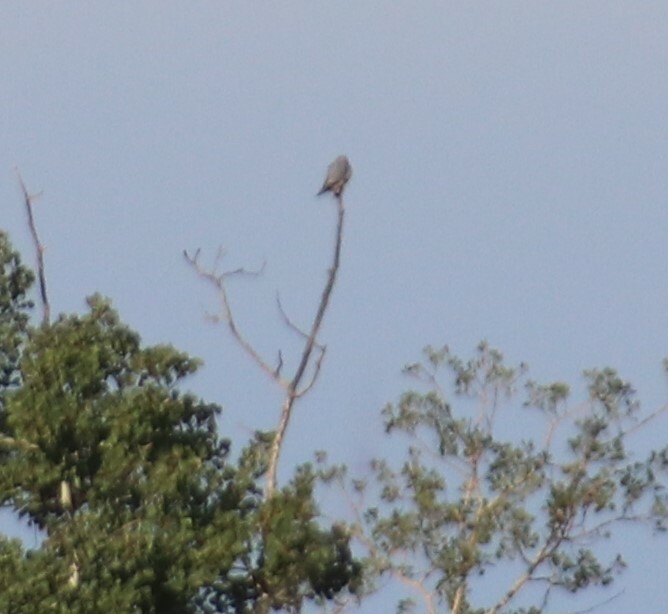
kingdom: Animalia
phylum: Chordata
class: Aves
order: Falconiformes
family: Falconidae
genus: Falco
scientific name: Falco columbarius
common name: Merlin
